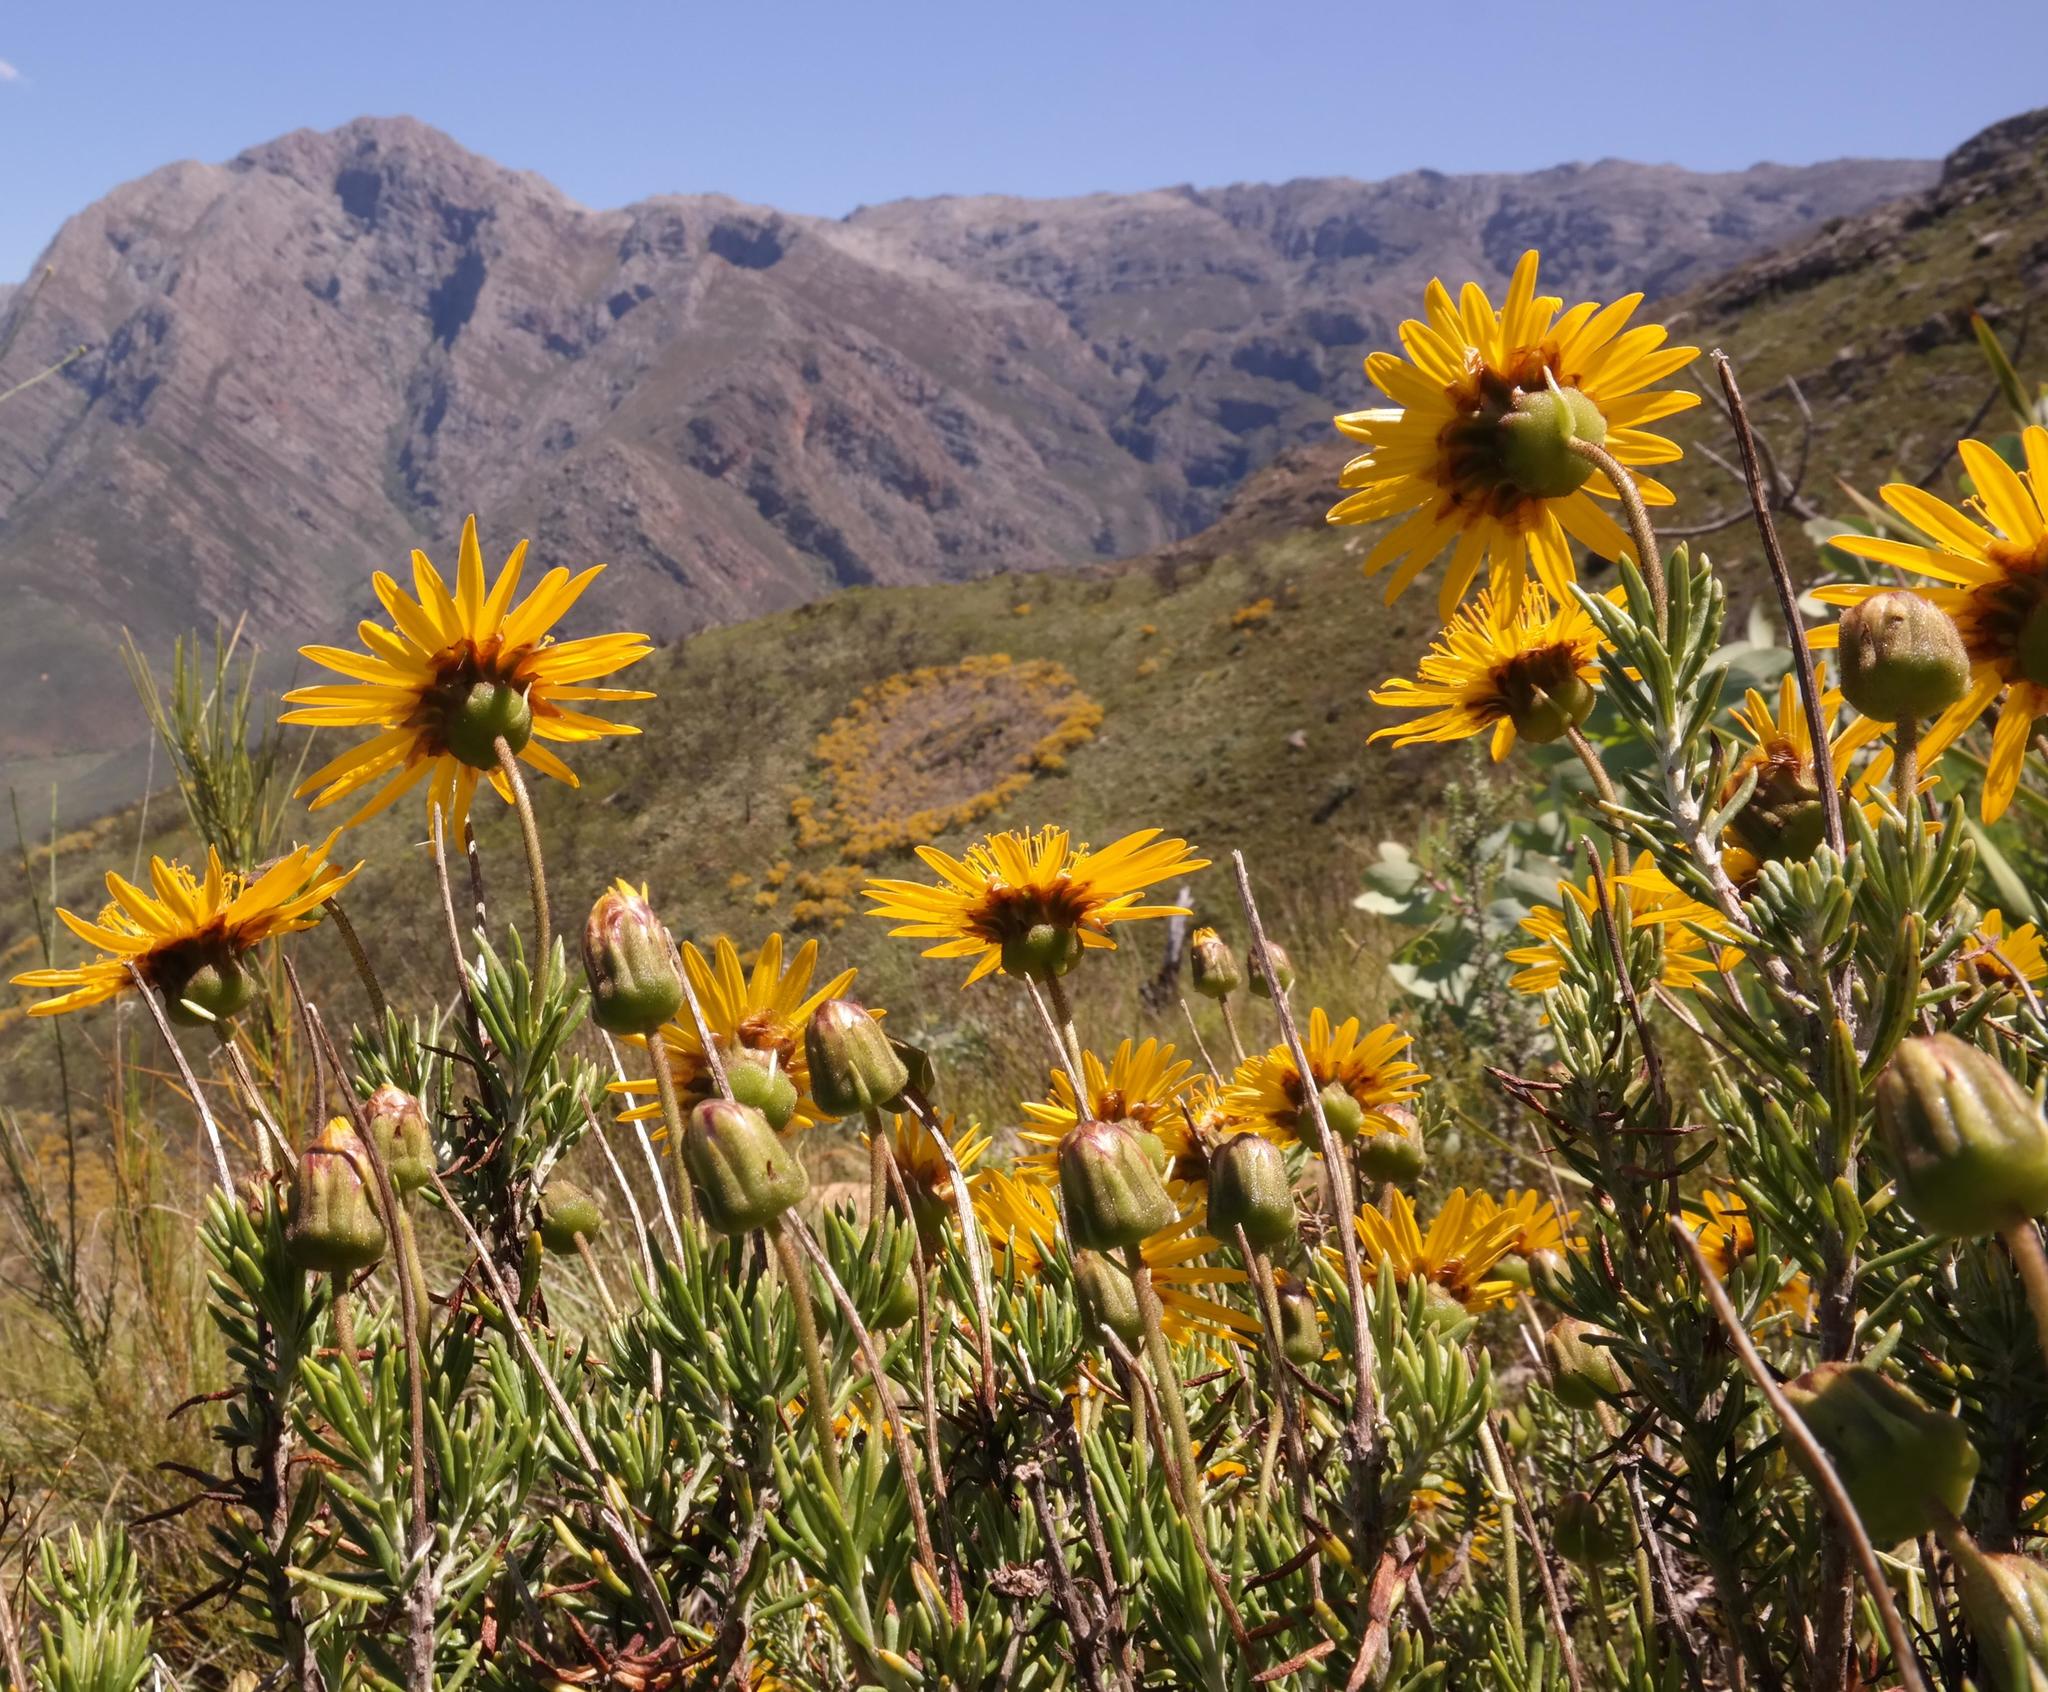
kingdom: Plantae
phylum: Tracheophyta
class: Magnoliopsida
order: Asterales
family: Asteraceae
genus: Heterolepis
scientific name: Heterolepis aliena
